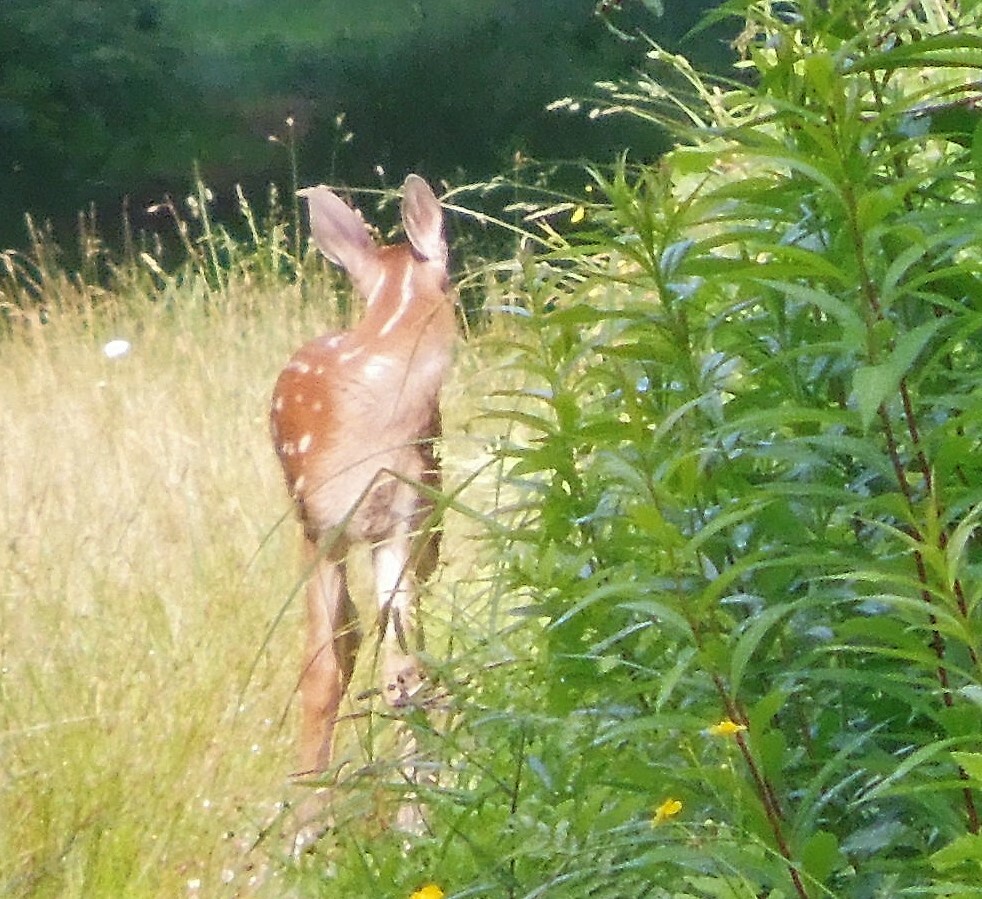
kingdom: Animalia
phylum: Chordata
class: Mammalia
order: Artiodactyla
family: Cervidae
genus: Odocoileus
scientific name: Odocoileus virginianus
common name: White-tailed deer
